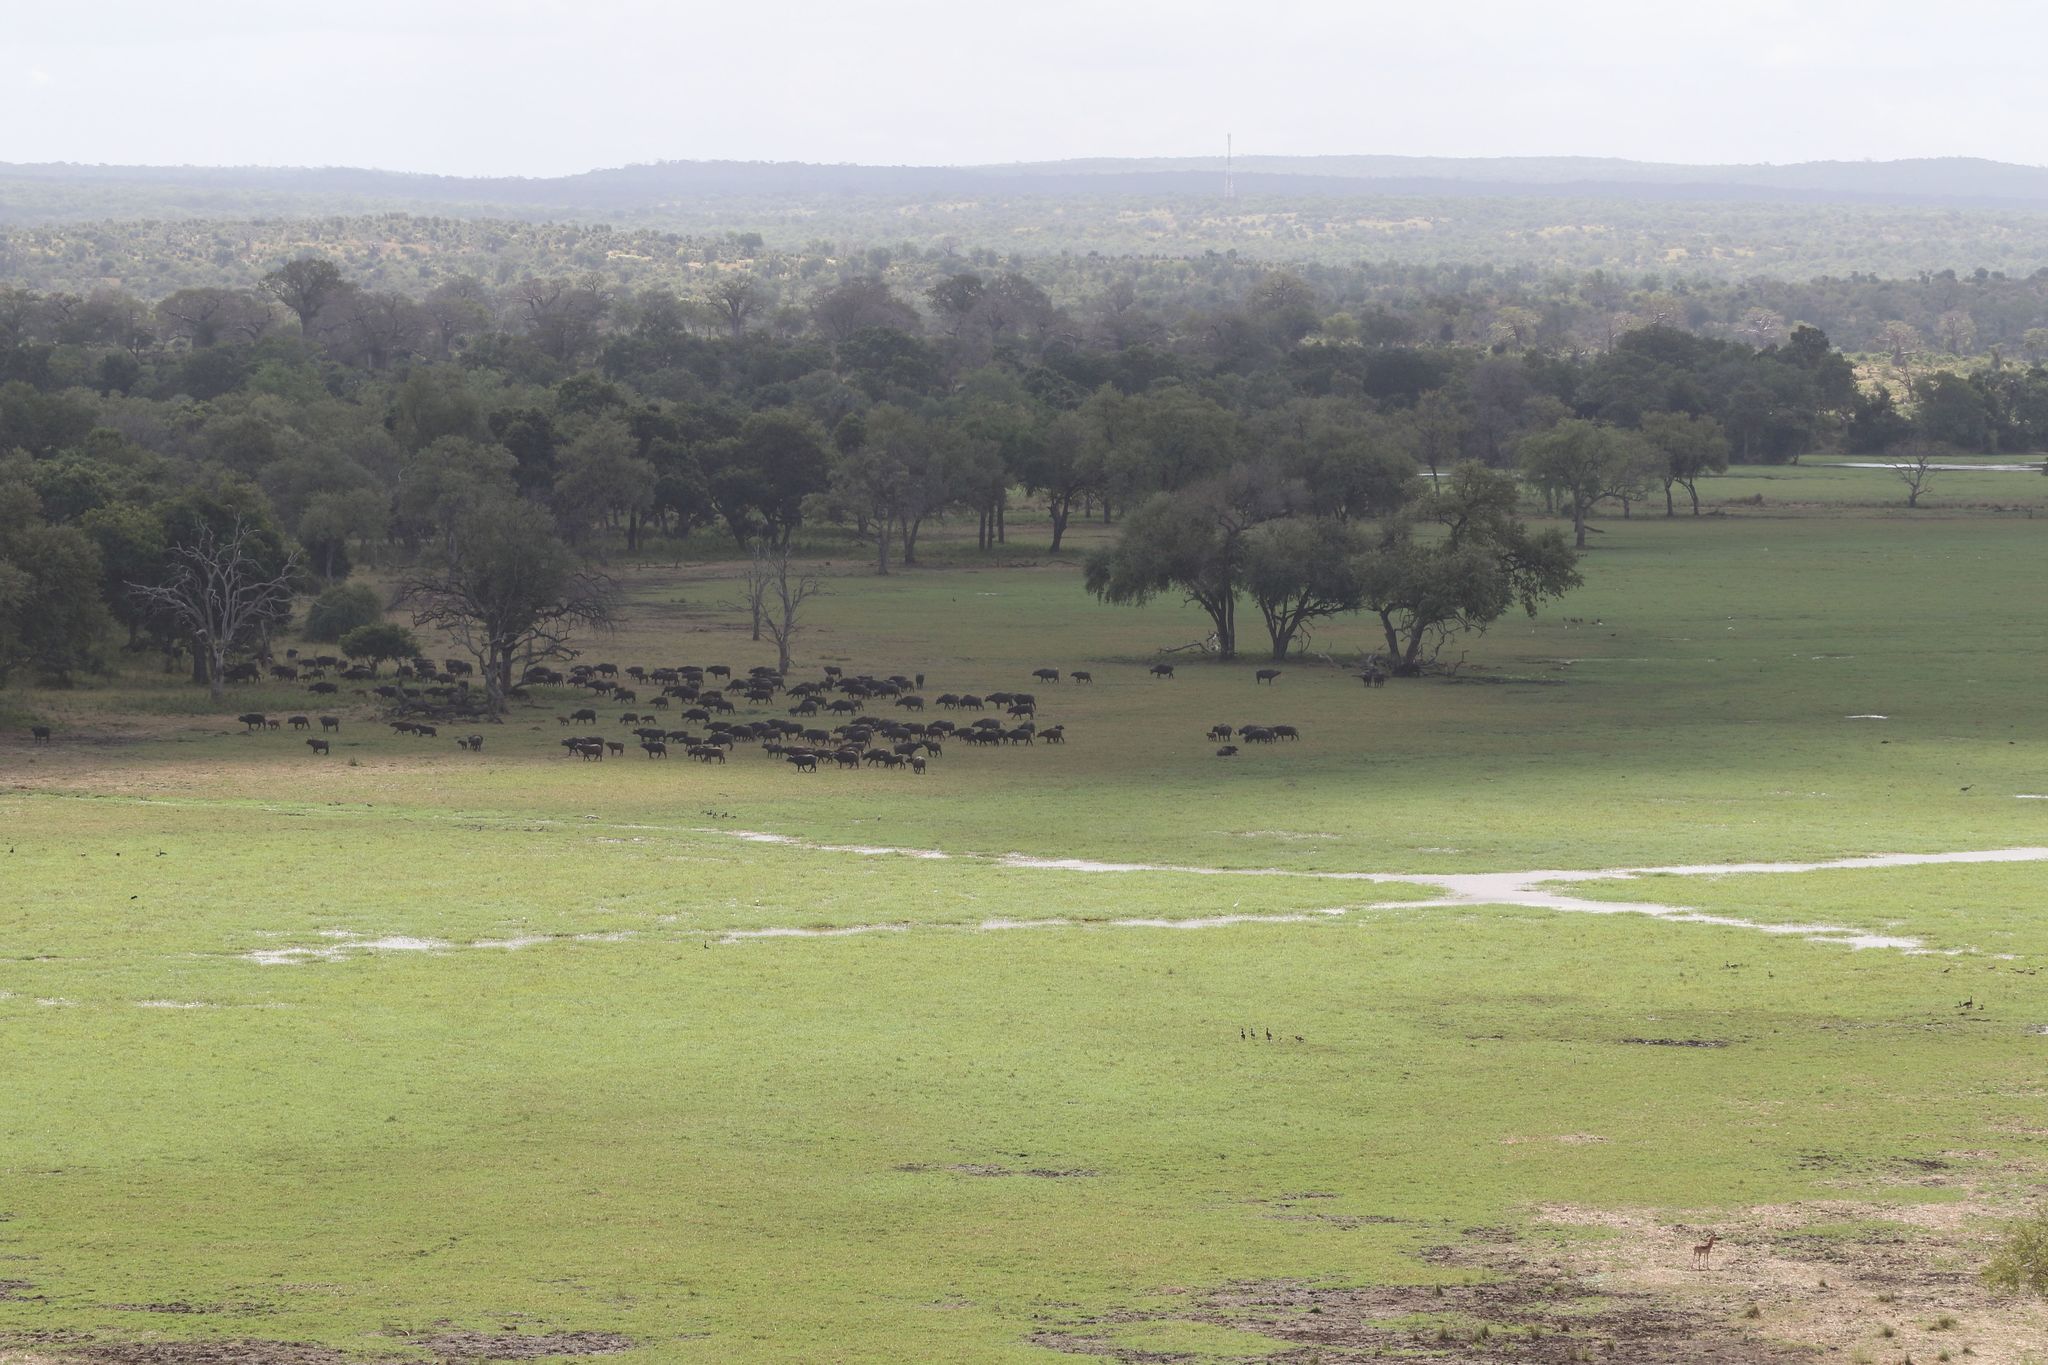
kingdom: Animalia
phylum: Chordata
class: Mammalia
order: Artiodactyla
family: Bovidae
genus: Syncerus
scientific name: Syncerus caffer
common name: African buffalo
